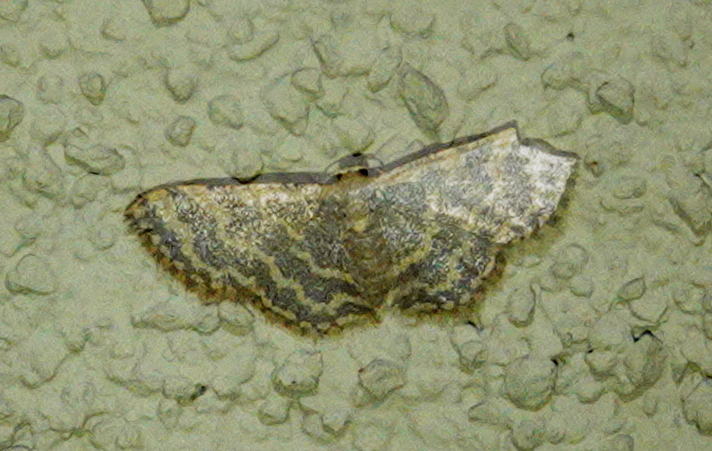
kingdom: Animalia
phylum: Arthropoda
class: Insecta
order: Lepidoptera
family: Geometridae
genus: Idaea
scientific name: Idaea costiguttata
